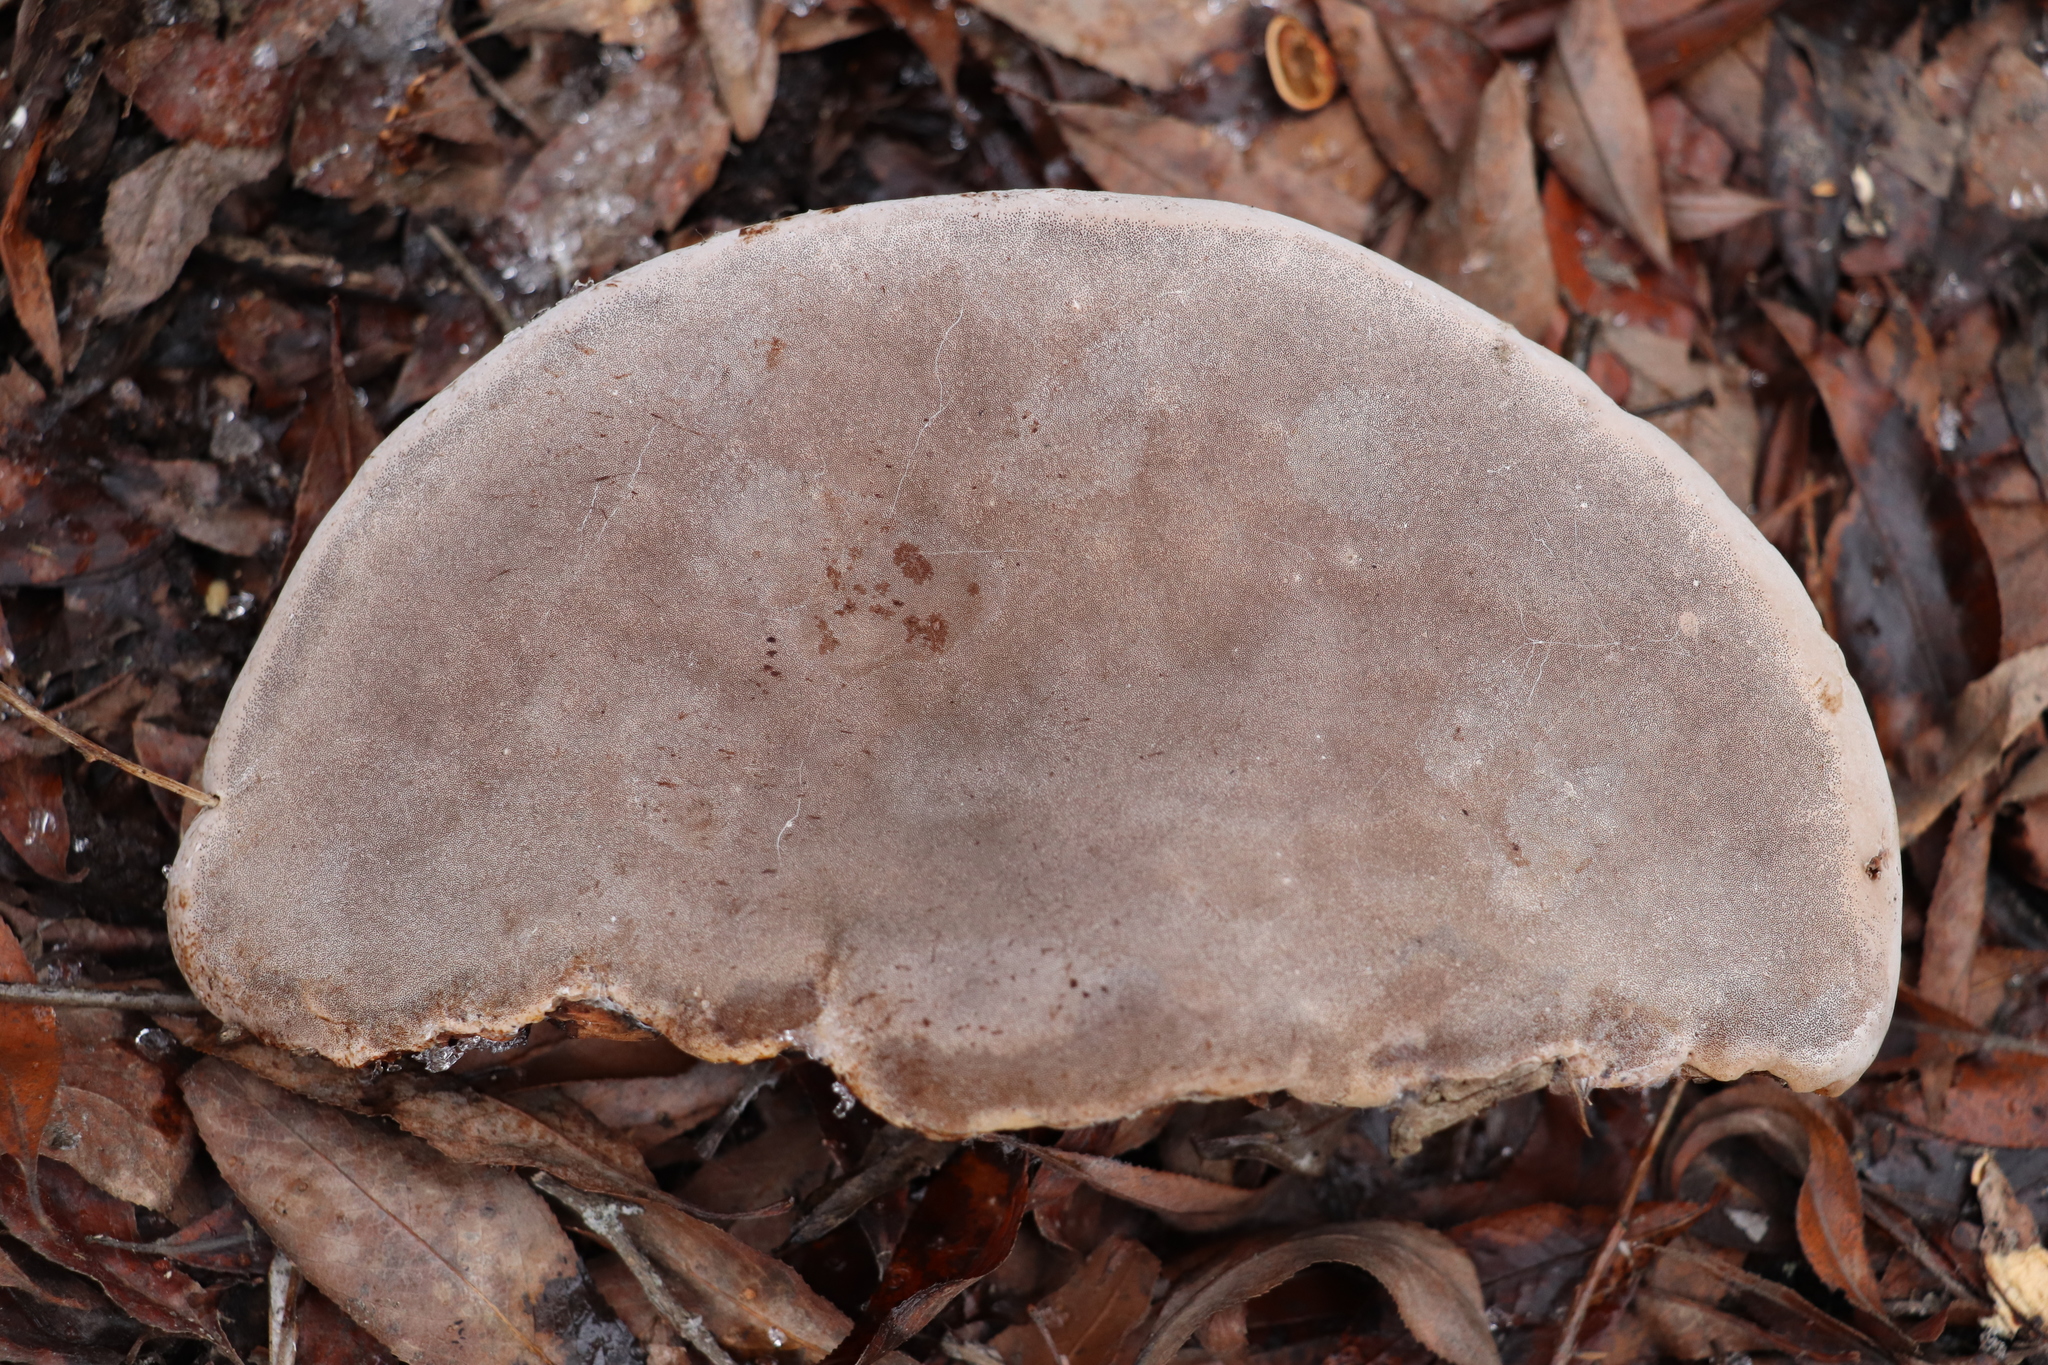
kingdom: Fungi
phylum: Basidiomycota
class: Agaricomycetes
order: Hymenochaetales
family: Hymenochaetaceae
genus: Phellinus
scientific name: Phellinus igniarius
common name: Willow bracket
